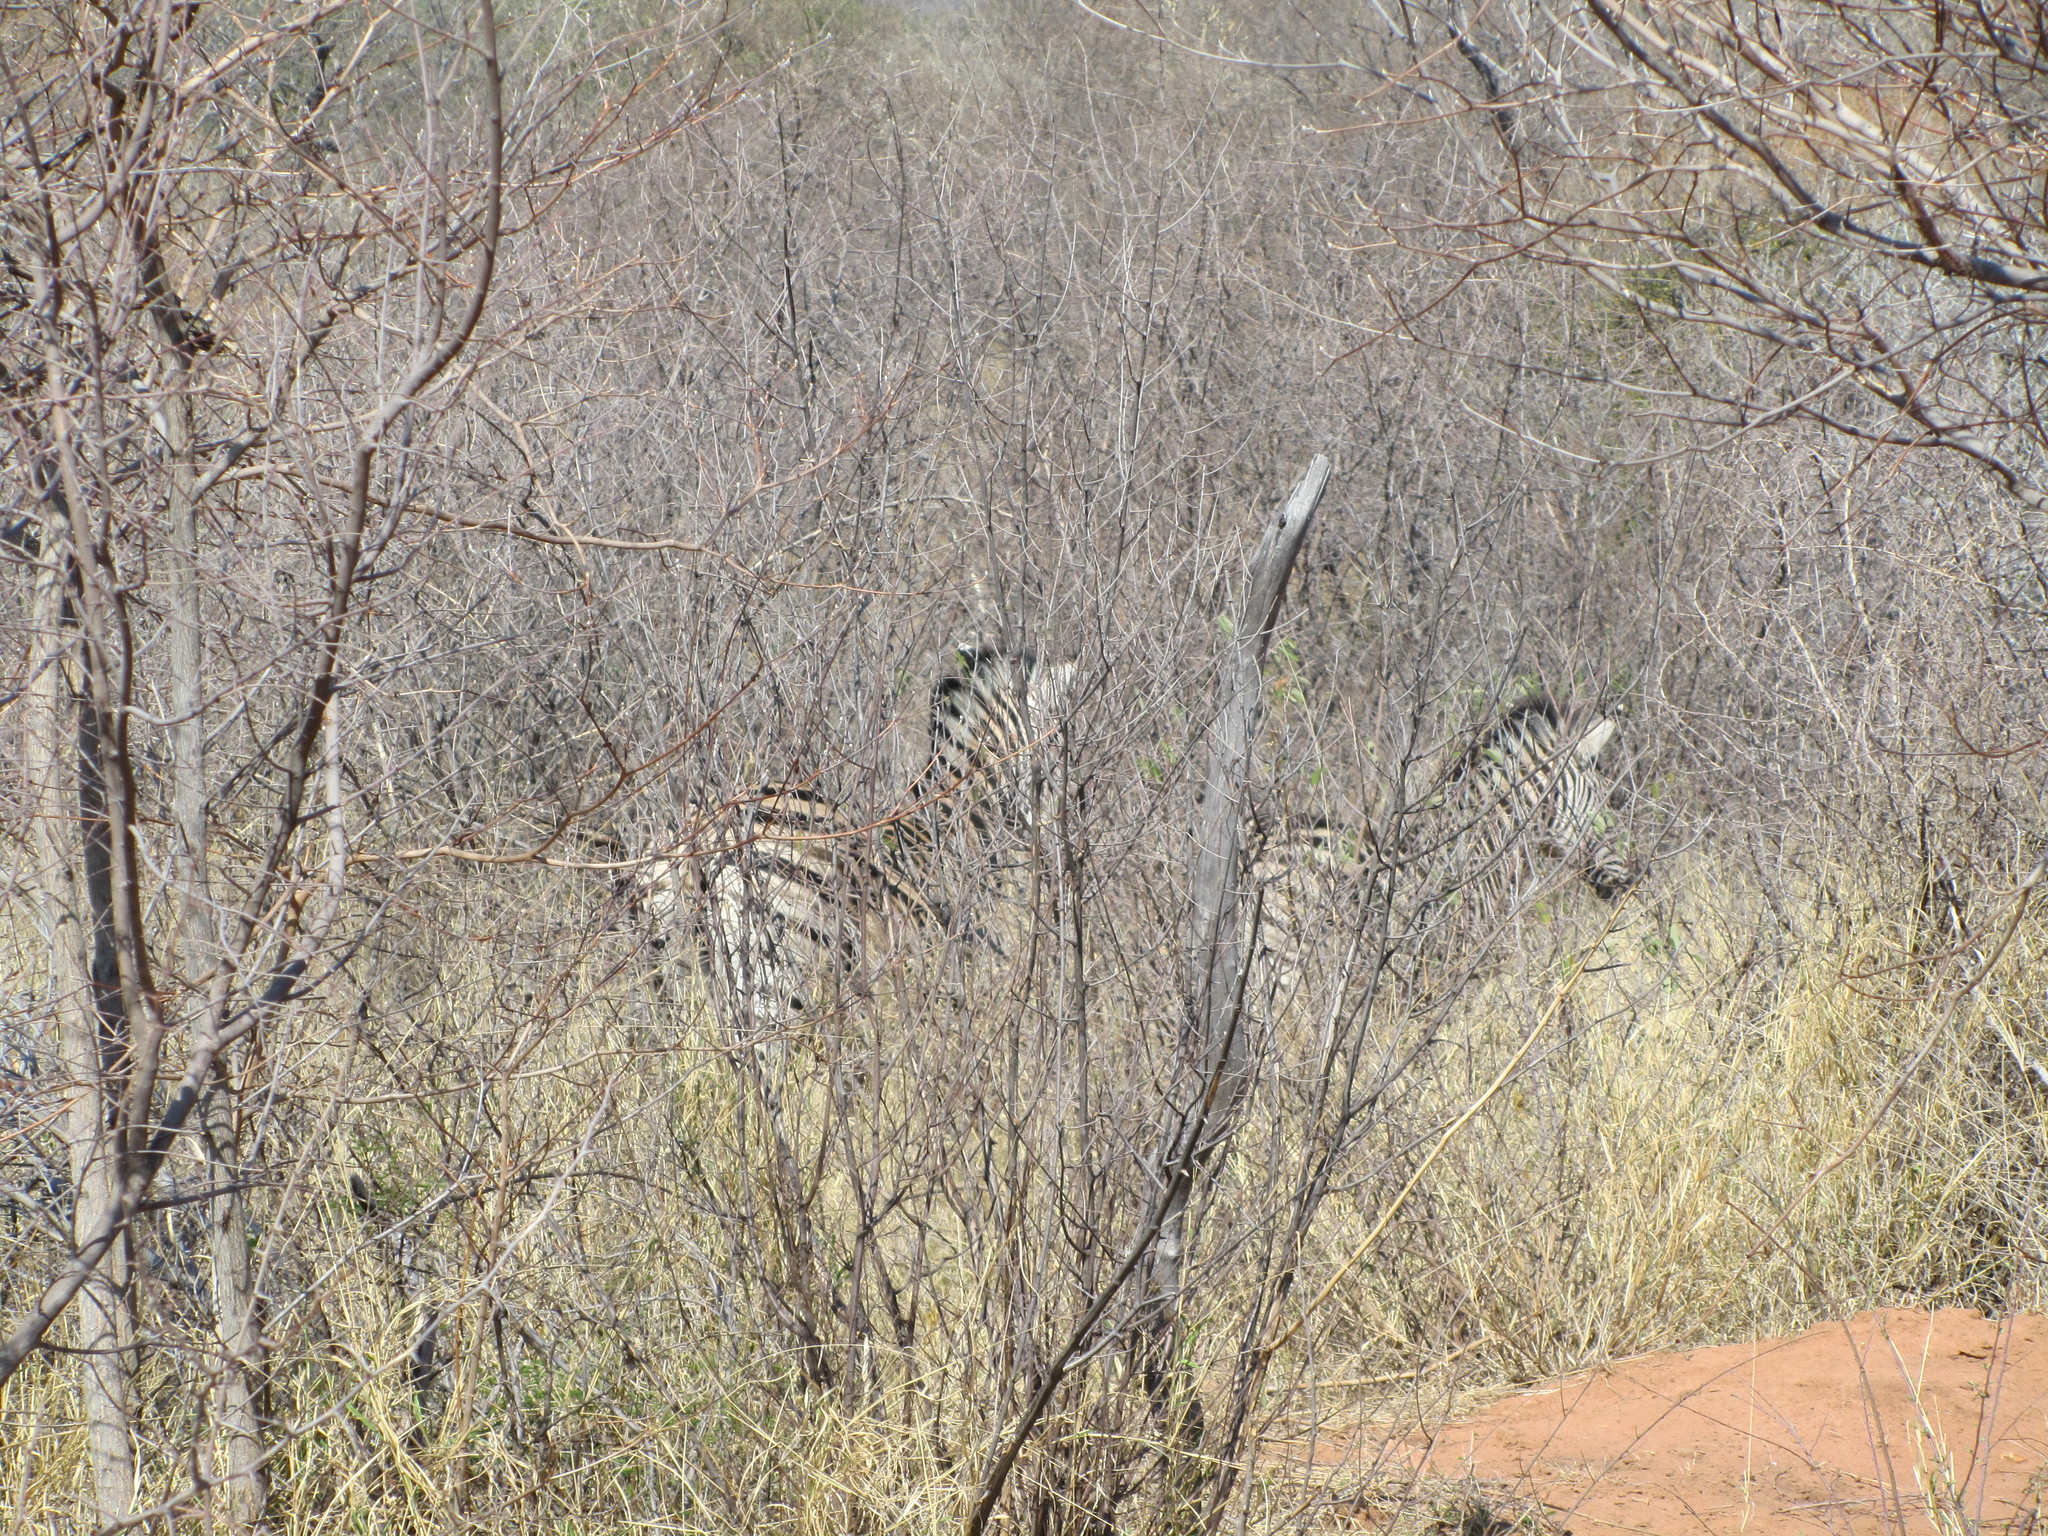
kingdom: Animalia
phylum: Chordata
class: Mammalia
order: Perissodactyla
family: Equidae
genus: Equus
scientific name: Equus quagga
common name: Plains zebra
